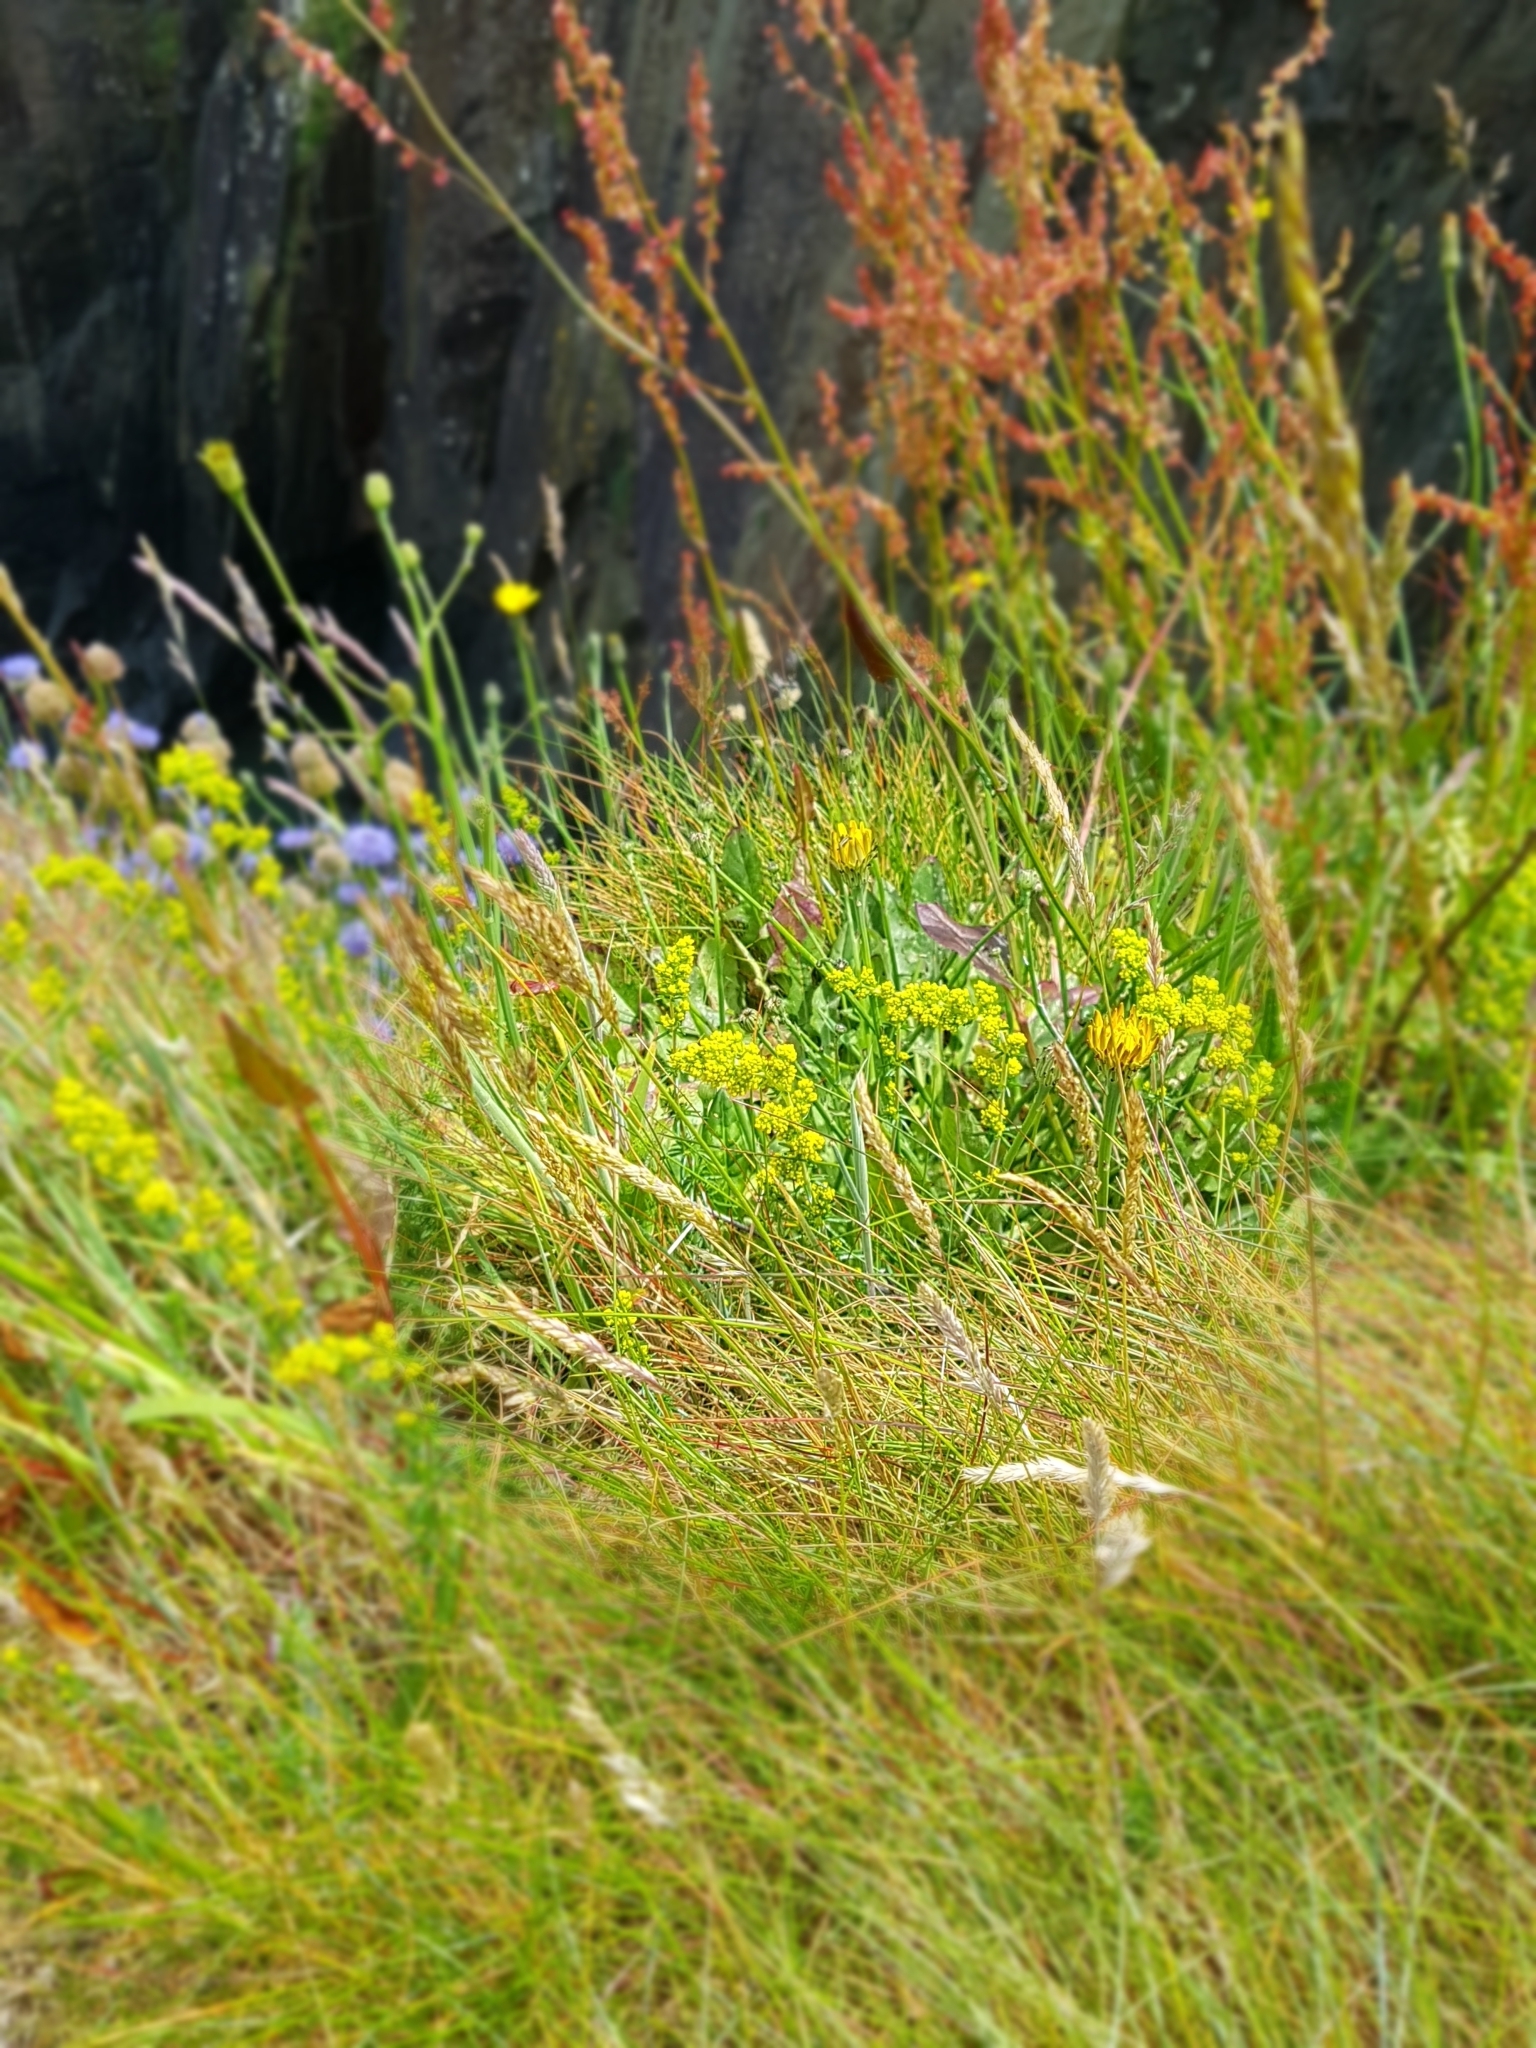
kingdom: Plantae
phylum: Tracheophyta
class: Magnoliopsida
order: Gentianales
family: Rubiaceae
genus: Galium
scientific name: Galium verum
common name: Lady's bedstraw
